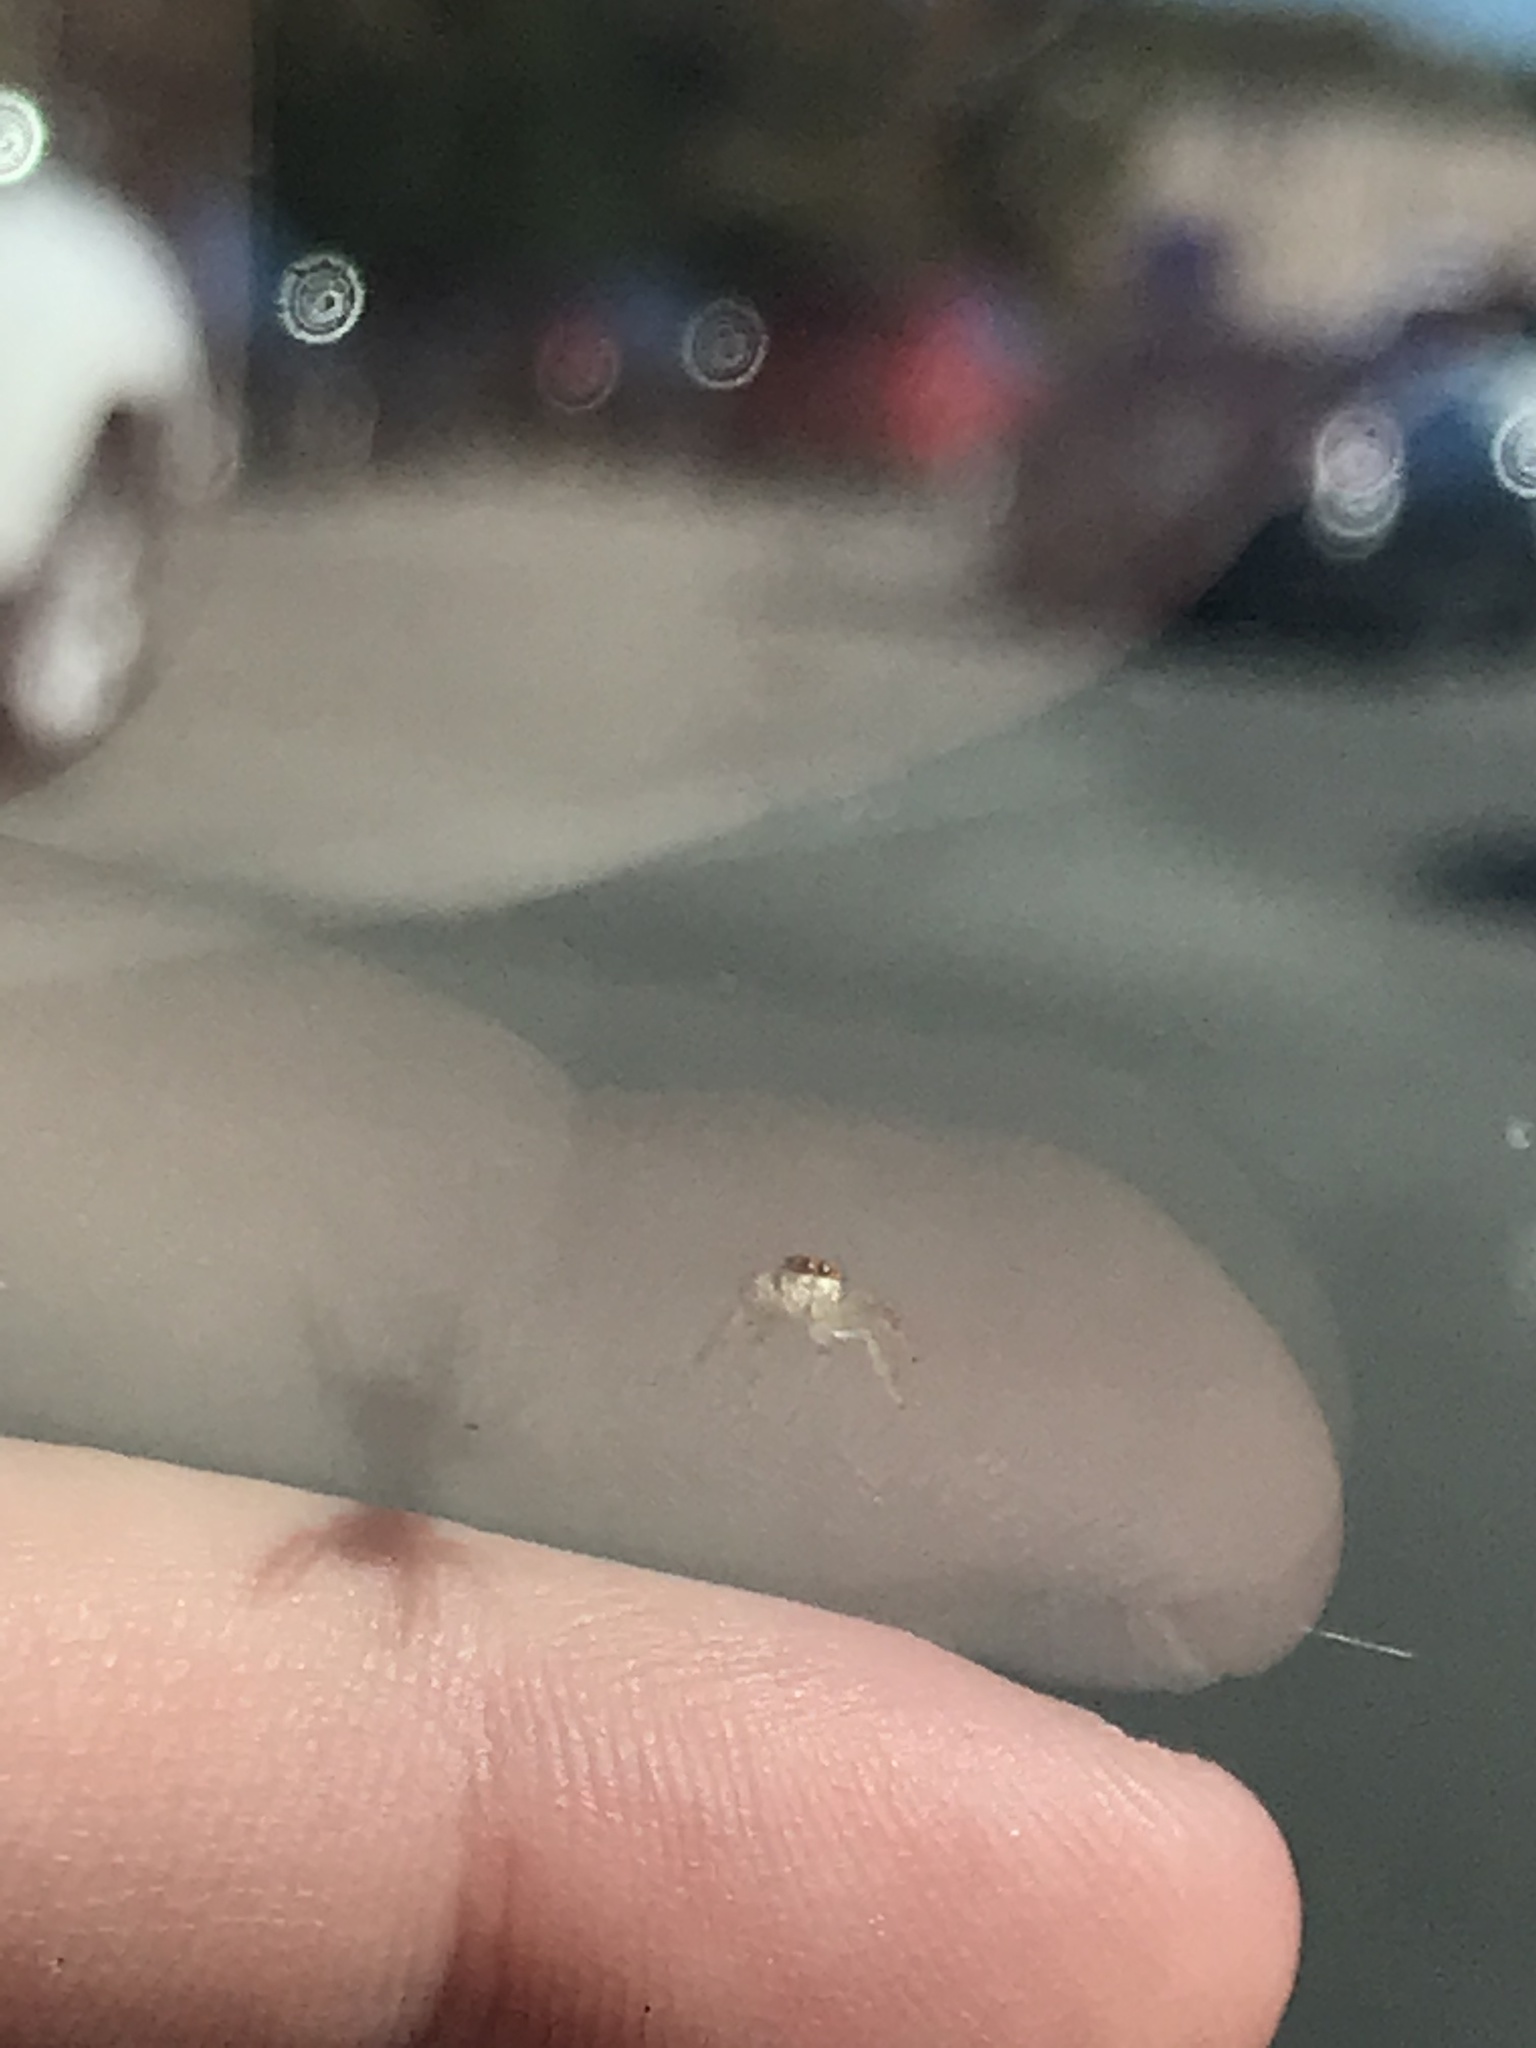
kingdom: Animalia
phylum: Arthropoda
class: Arachnida
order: Araneae
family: Salticidae
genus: Hentzia
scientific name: Hentzia mitrata
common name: White-jawed jumping spider
